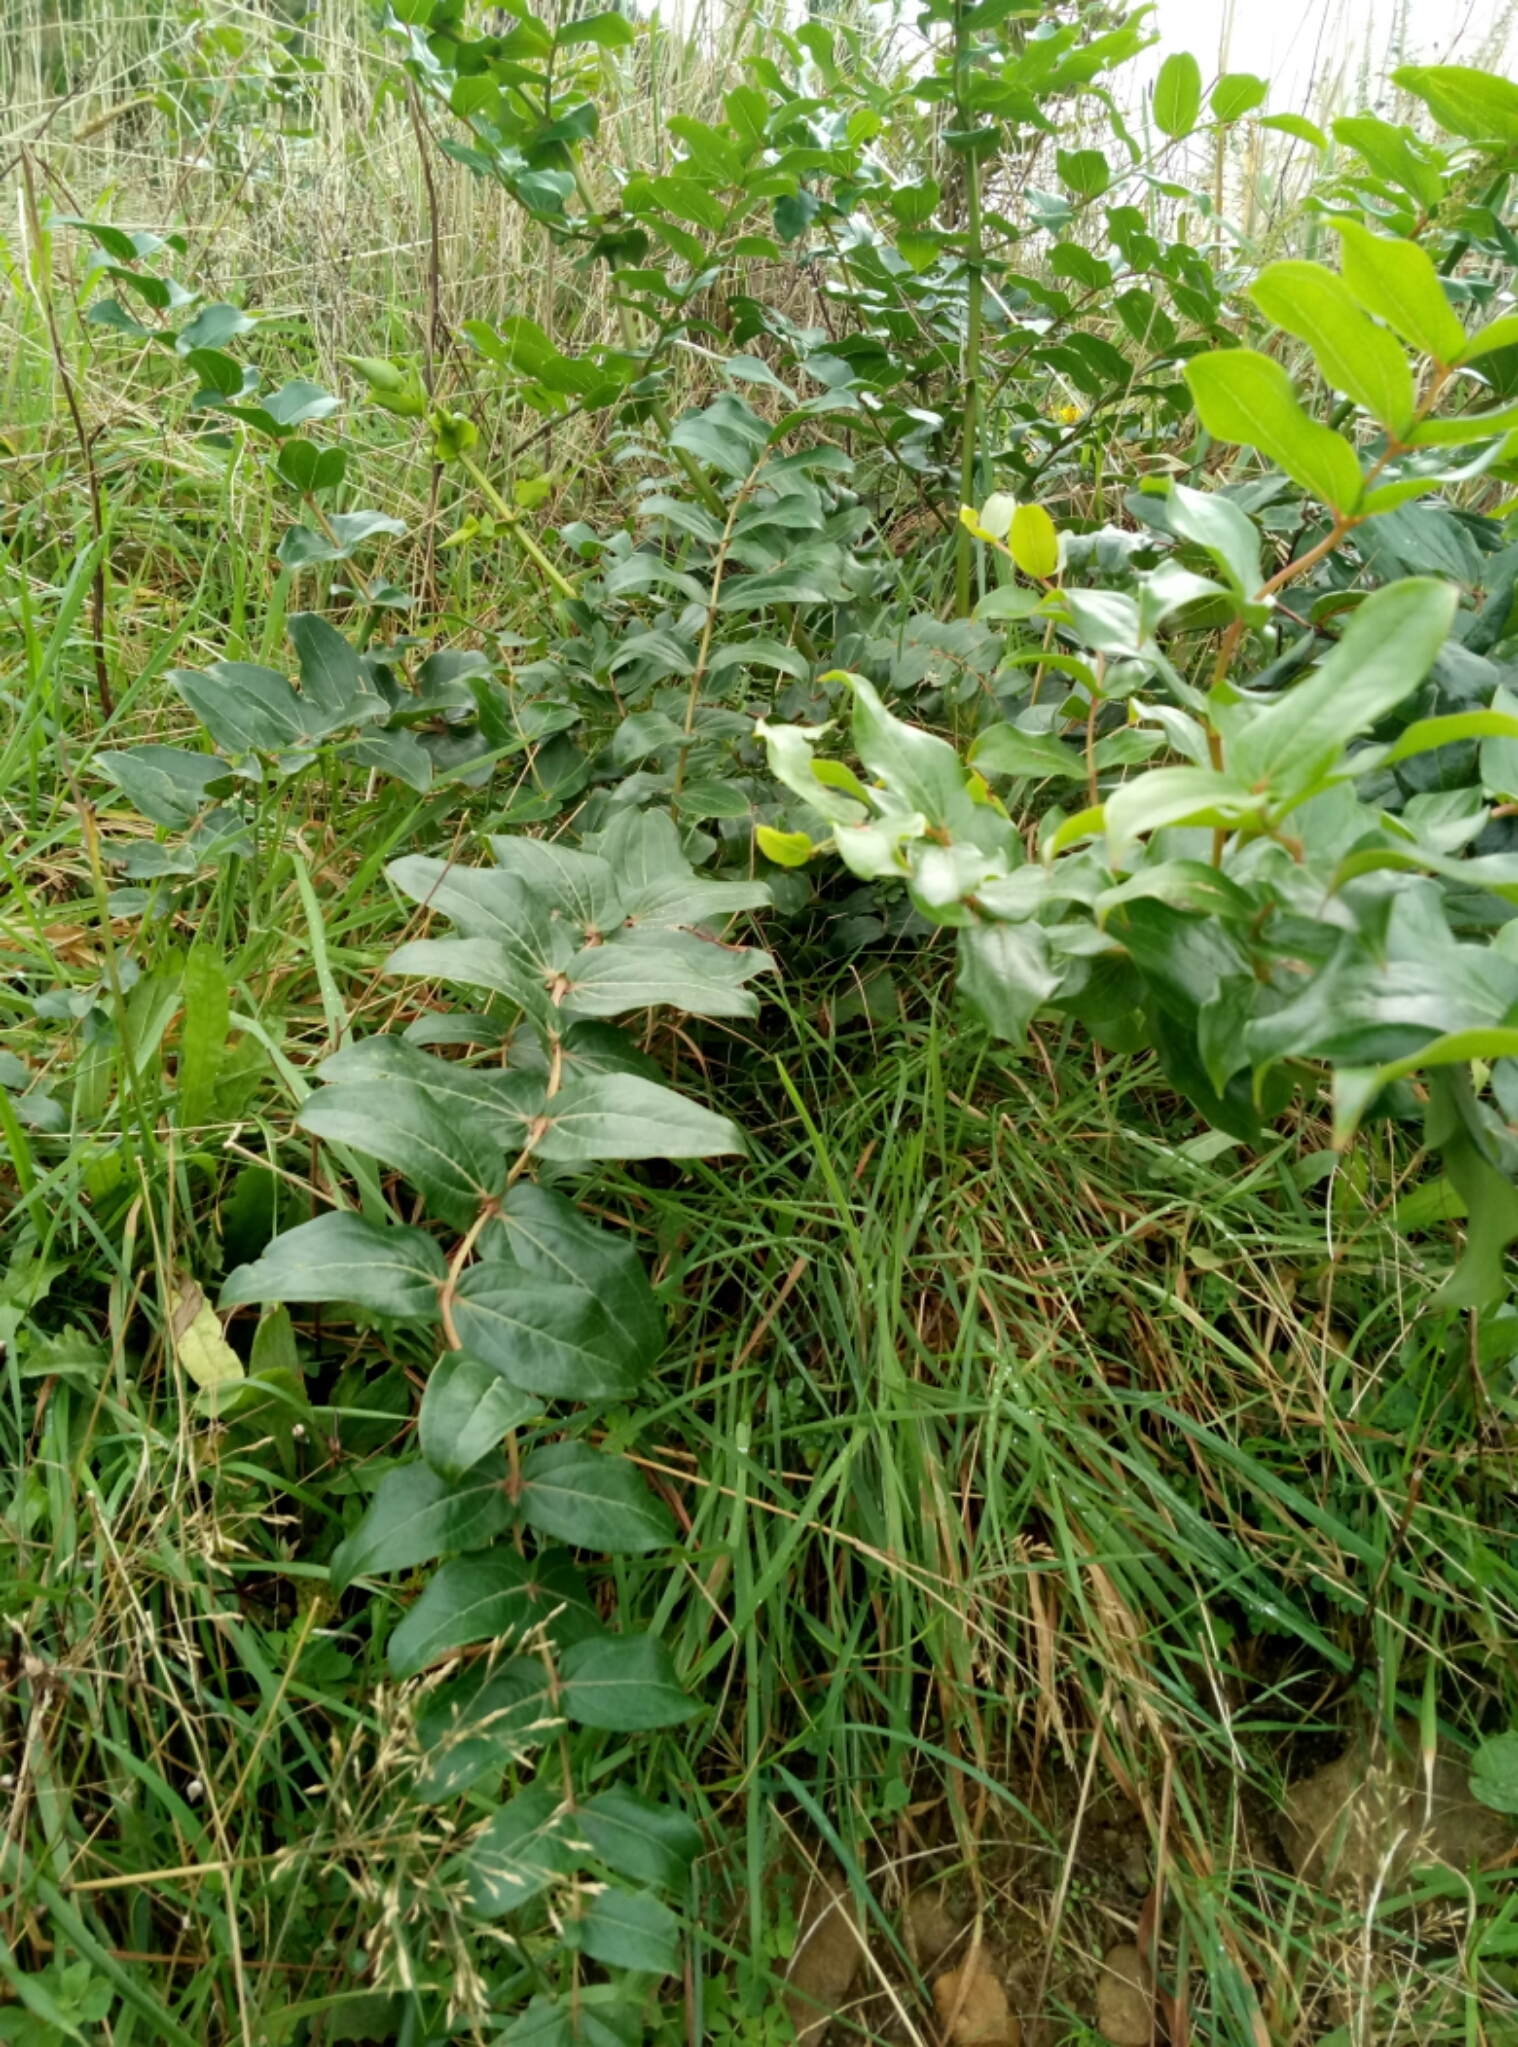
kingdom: Plantae
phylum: Tracheophyta
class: Magnoliopsida
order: Cucurbitales
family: Coriariaceae
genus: Coriaria
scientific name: Coriaria arborea
